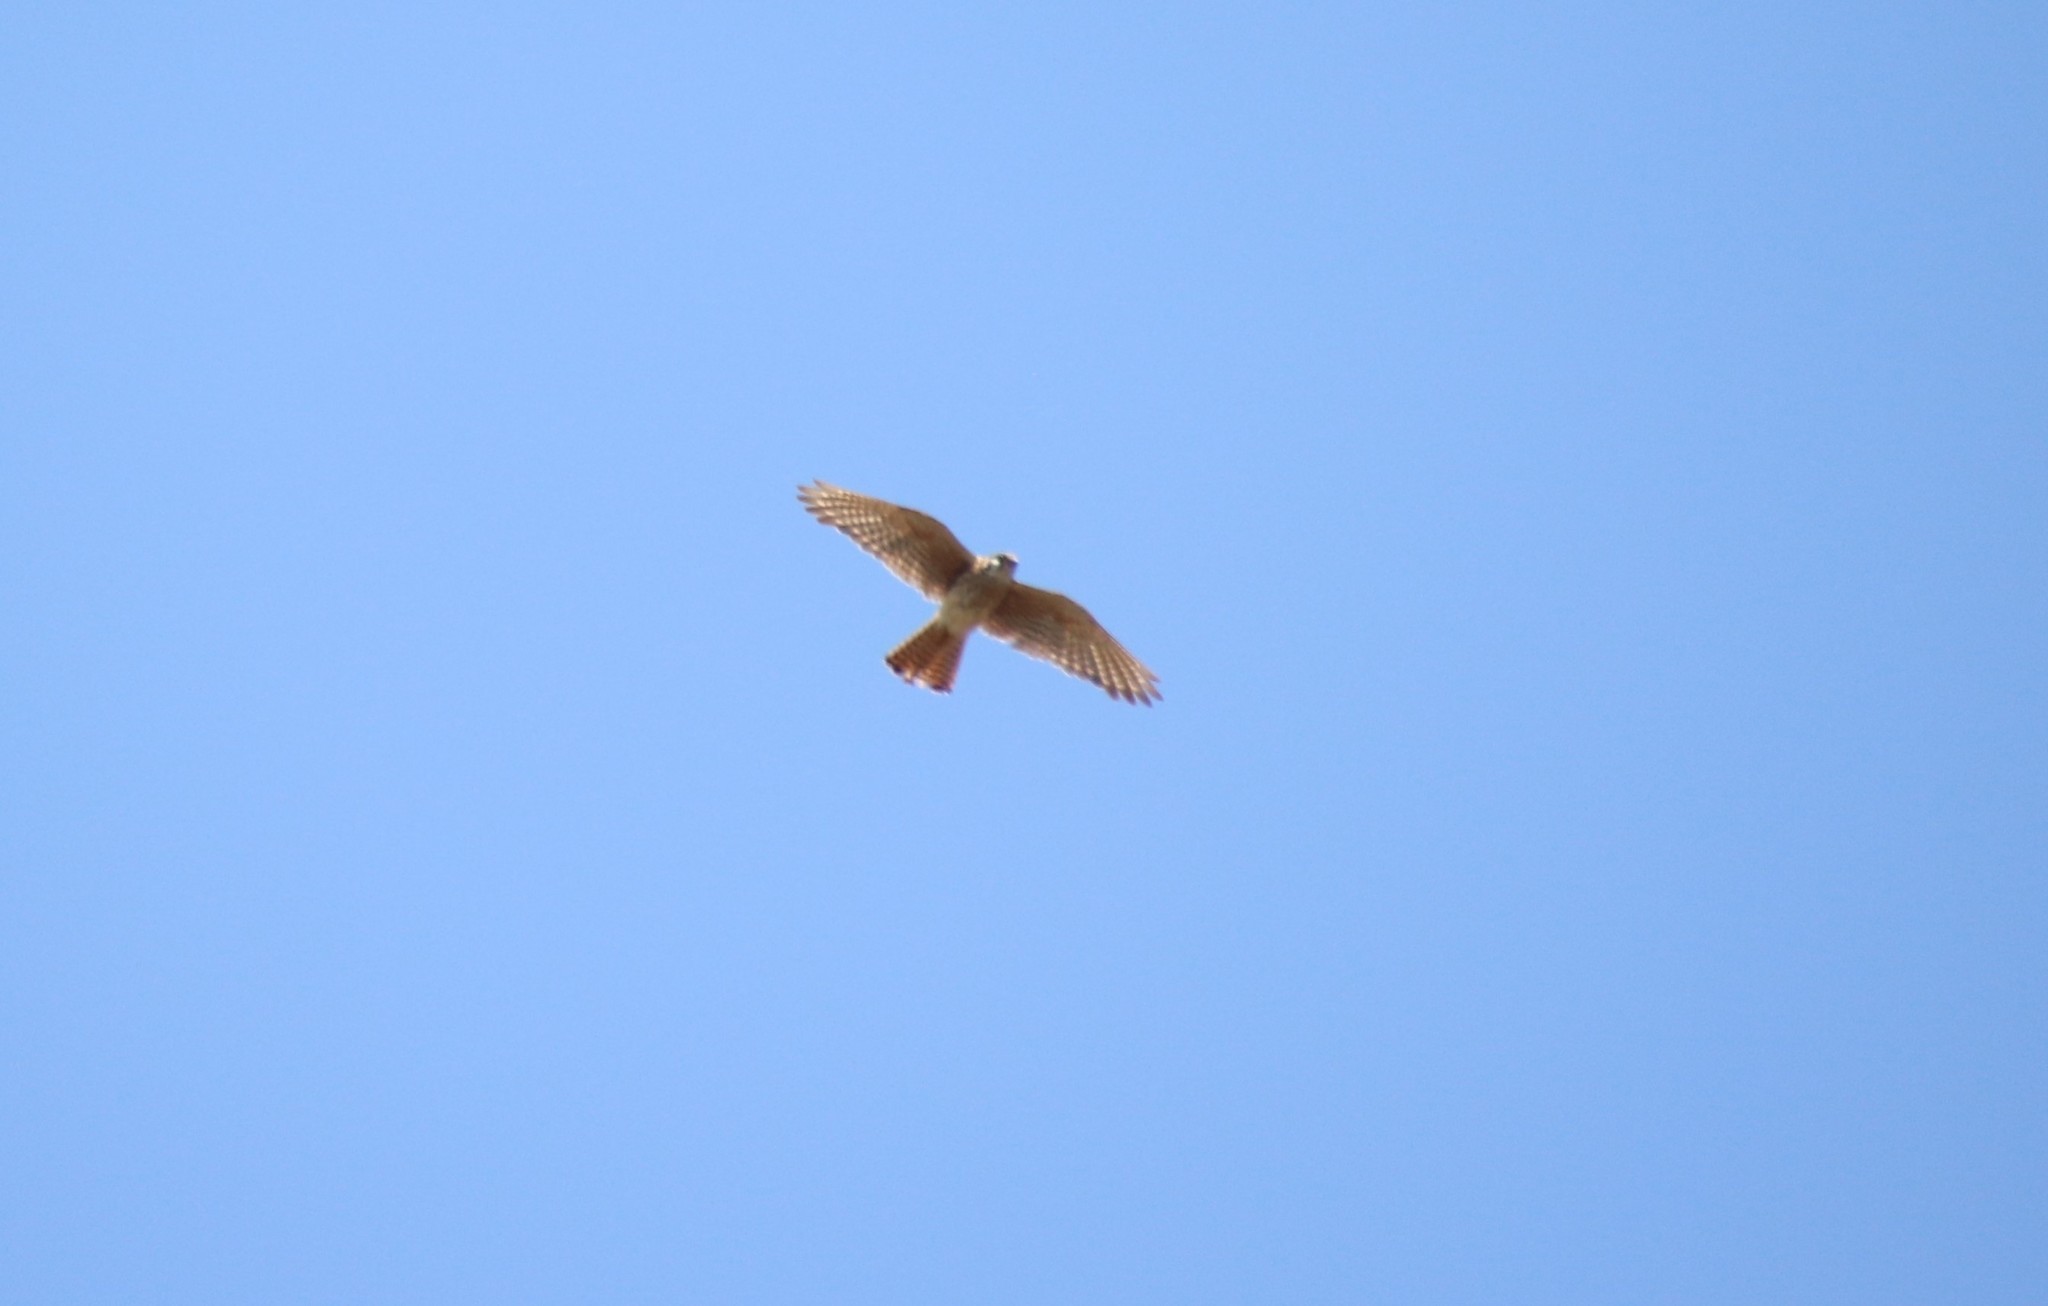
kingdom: Animalia
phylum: Chordata
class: Aves
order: Falconiformes
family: Falconidae
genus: Falco
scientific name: Falco sparverius
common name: American kestrel
